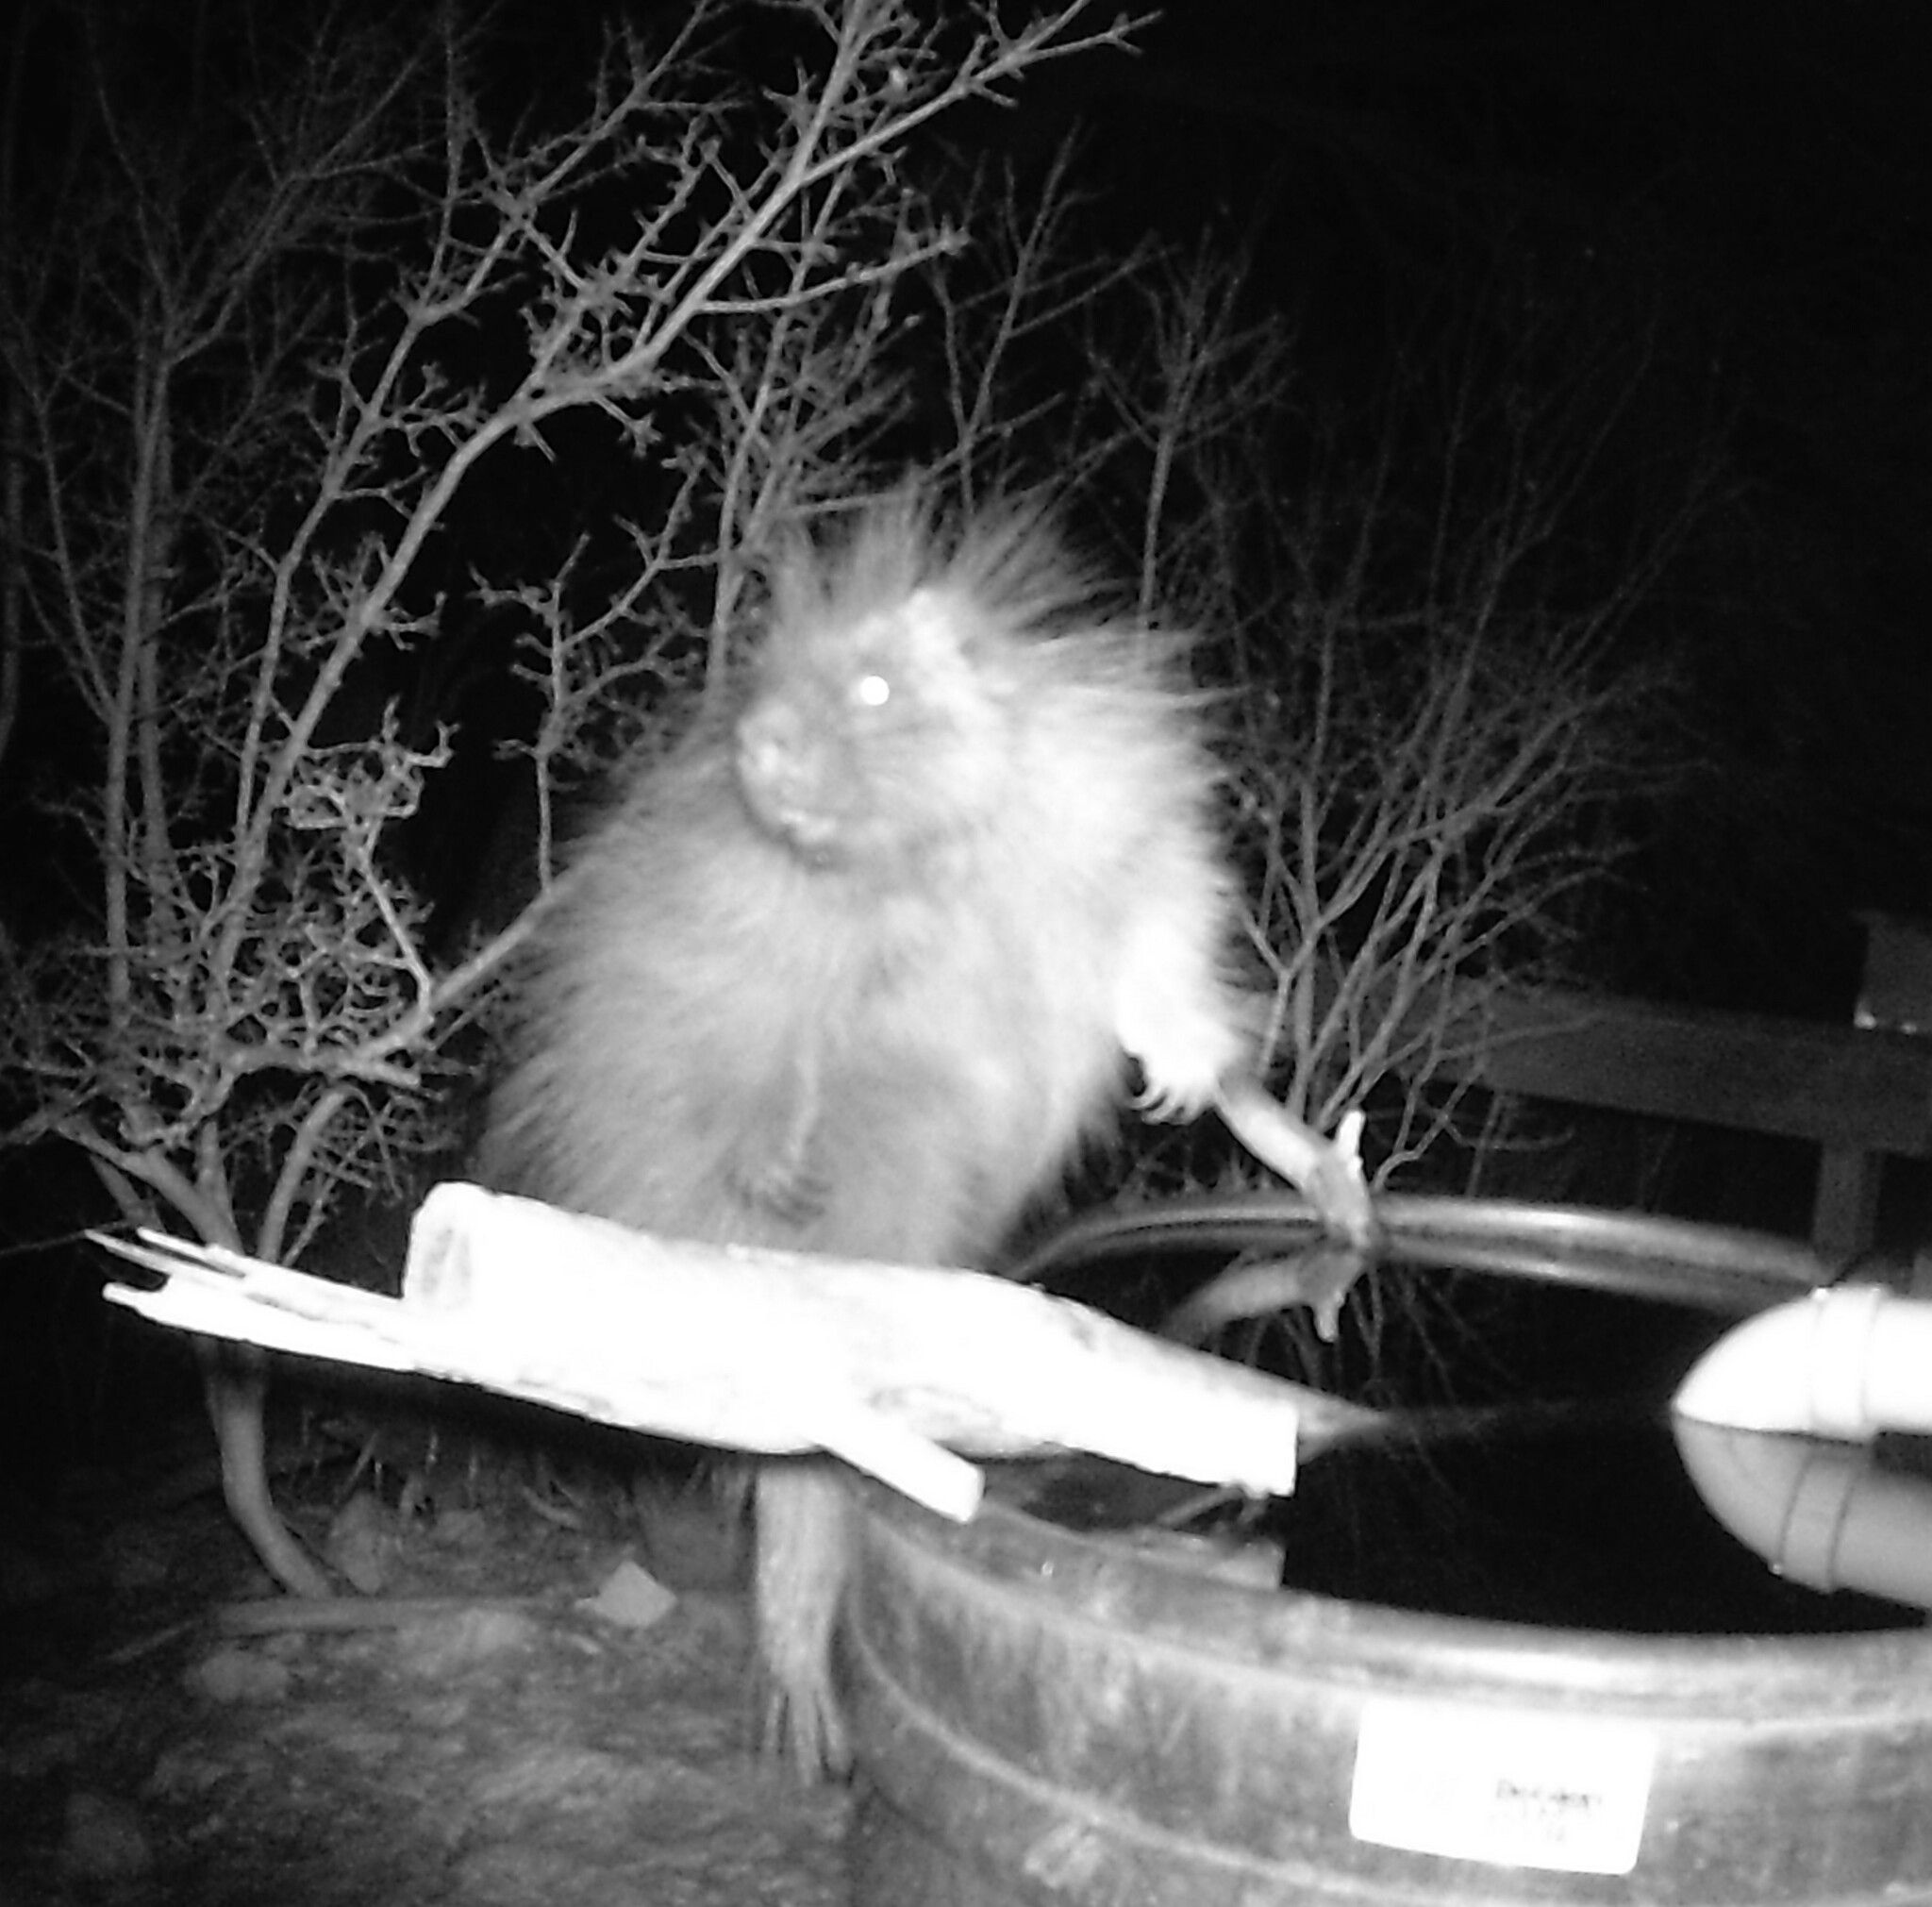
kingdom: Animalia
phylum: Chordata
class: Mammalia
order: Rodentia
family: Erethizontidae
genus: Erethizon
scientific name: Erethizon dorsatus
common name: North american porcupine
